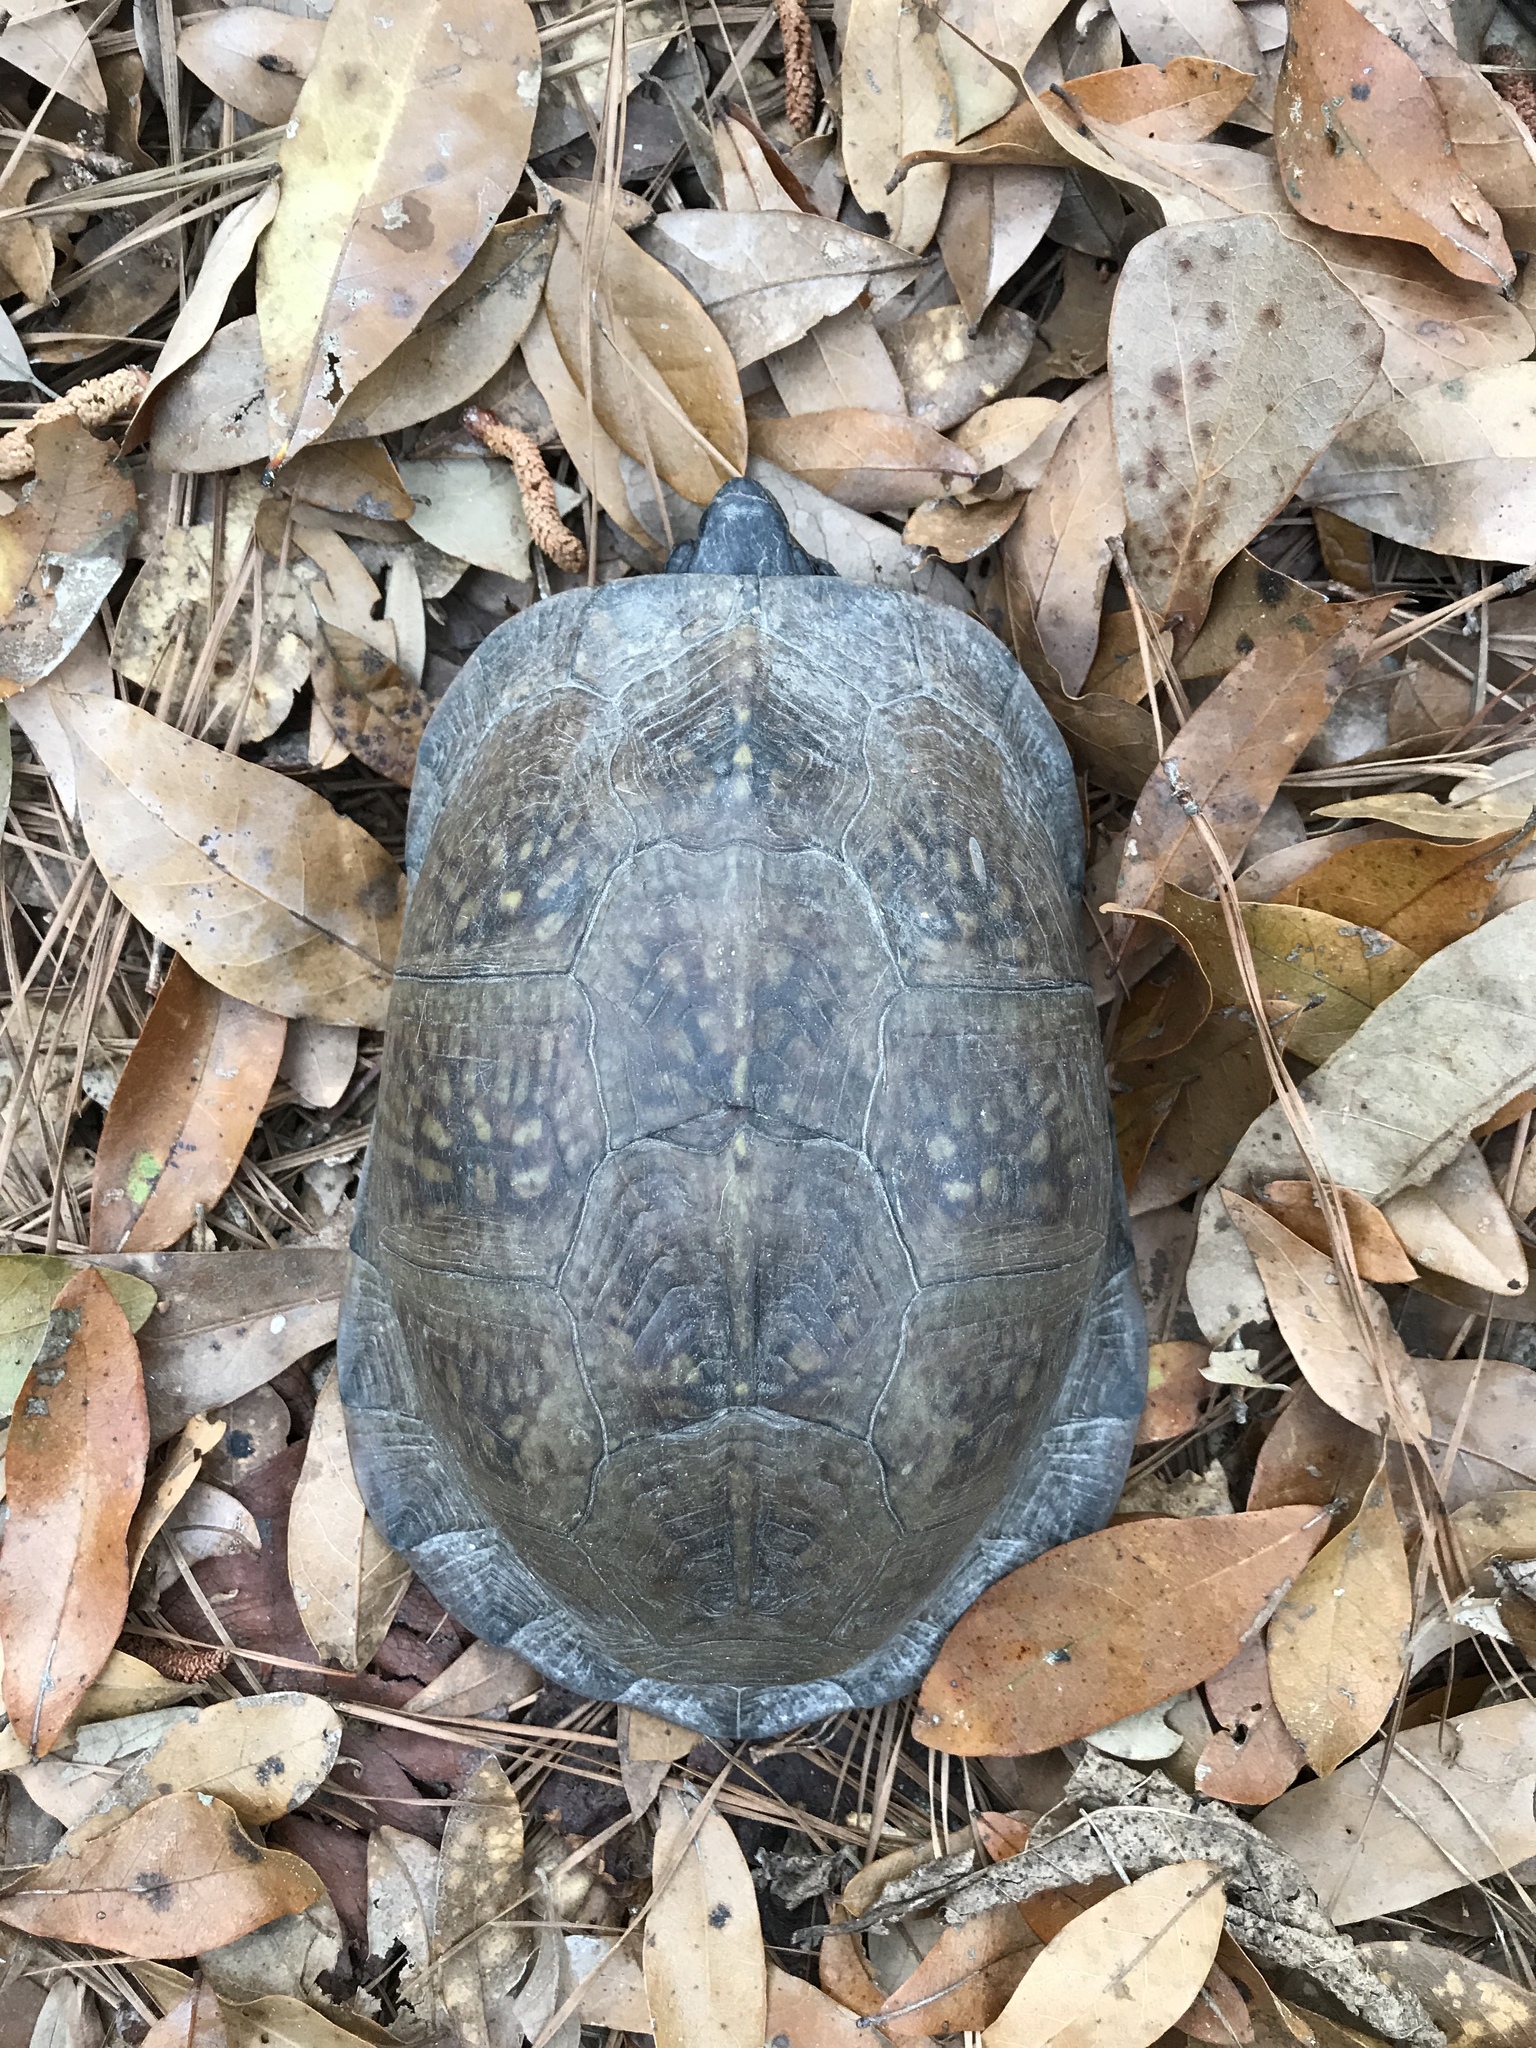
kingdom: Animalia
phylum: Chordata
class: Testudines
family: Emydidae
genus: Terrapene
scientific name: Terrapene carolina
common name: Common box turtle
